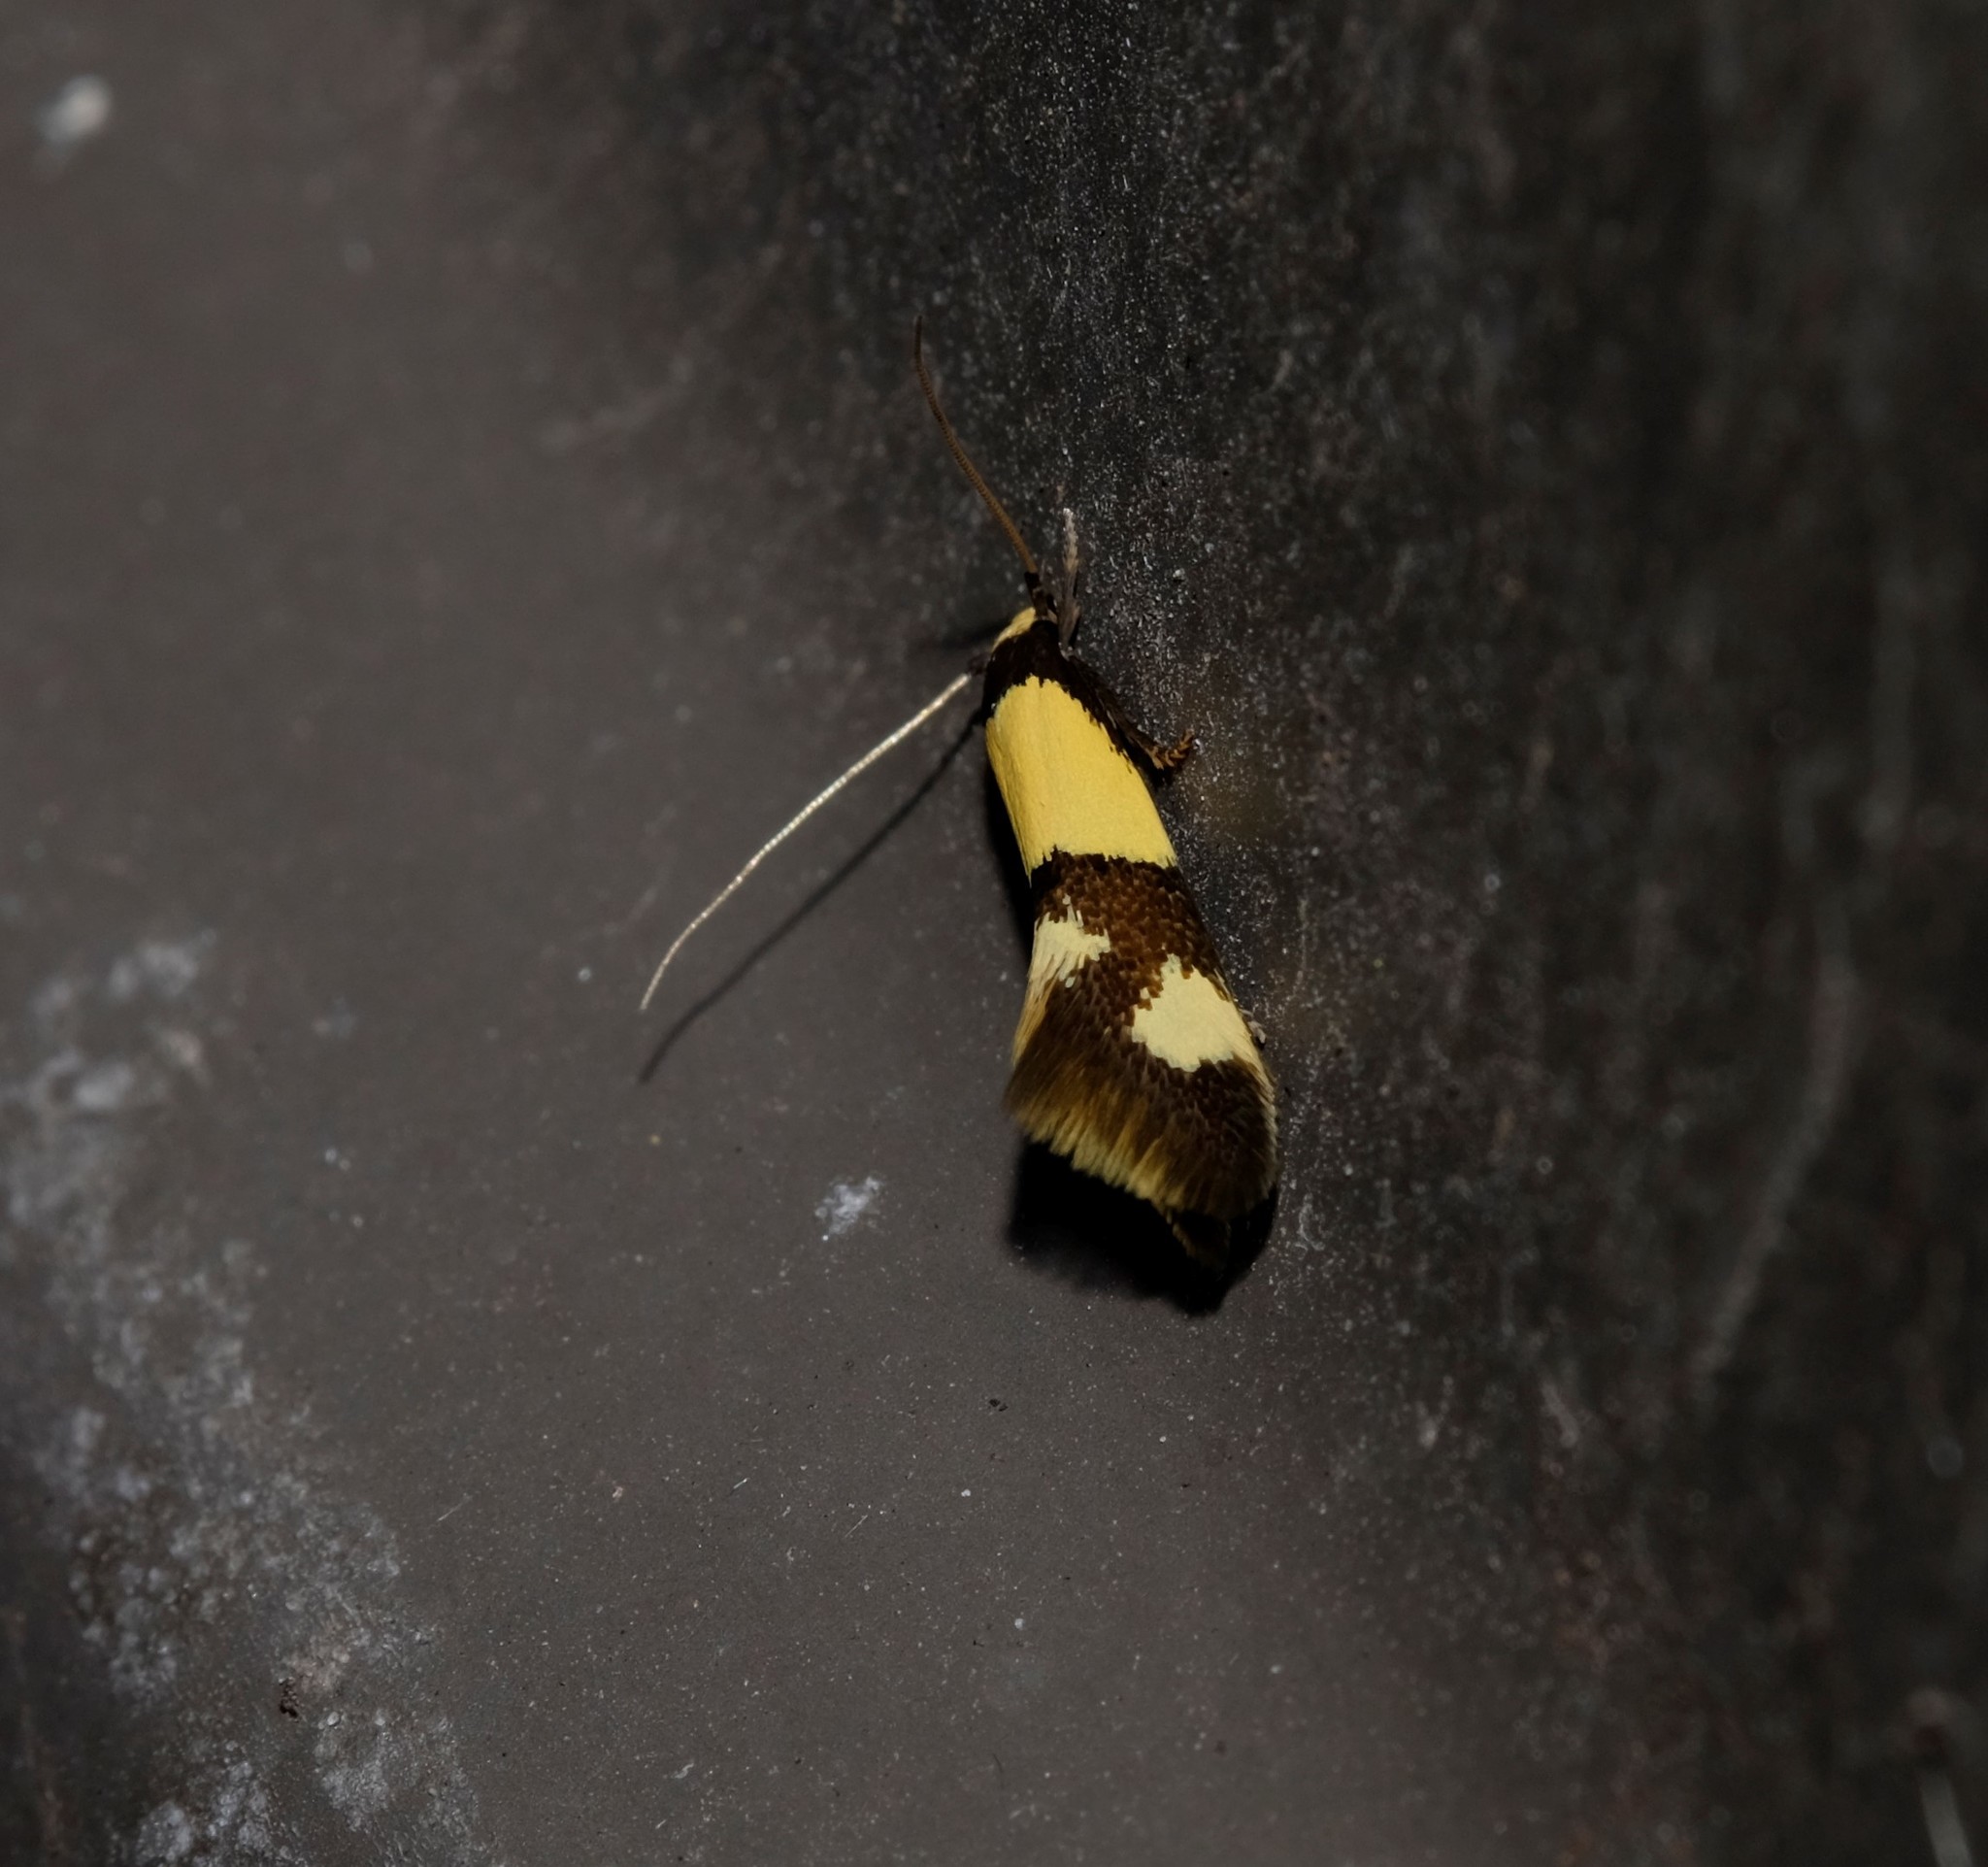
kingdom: Animalia
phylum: Arthropoda
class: Insecta
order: Lepidoptera
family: Tineidae
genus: Opogona
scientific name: Opogona comptella
